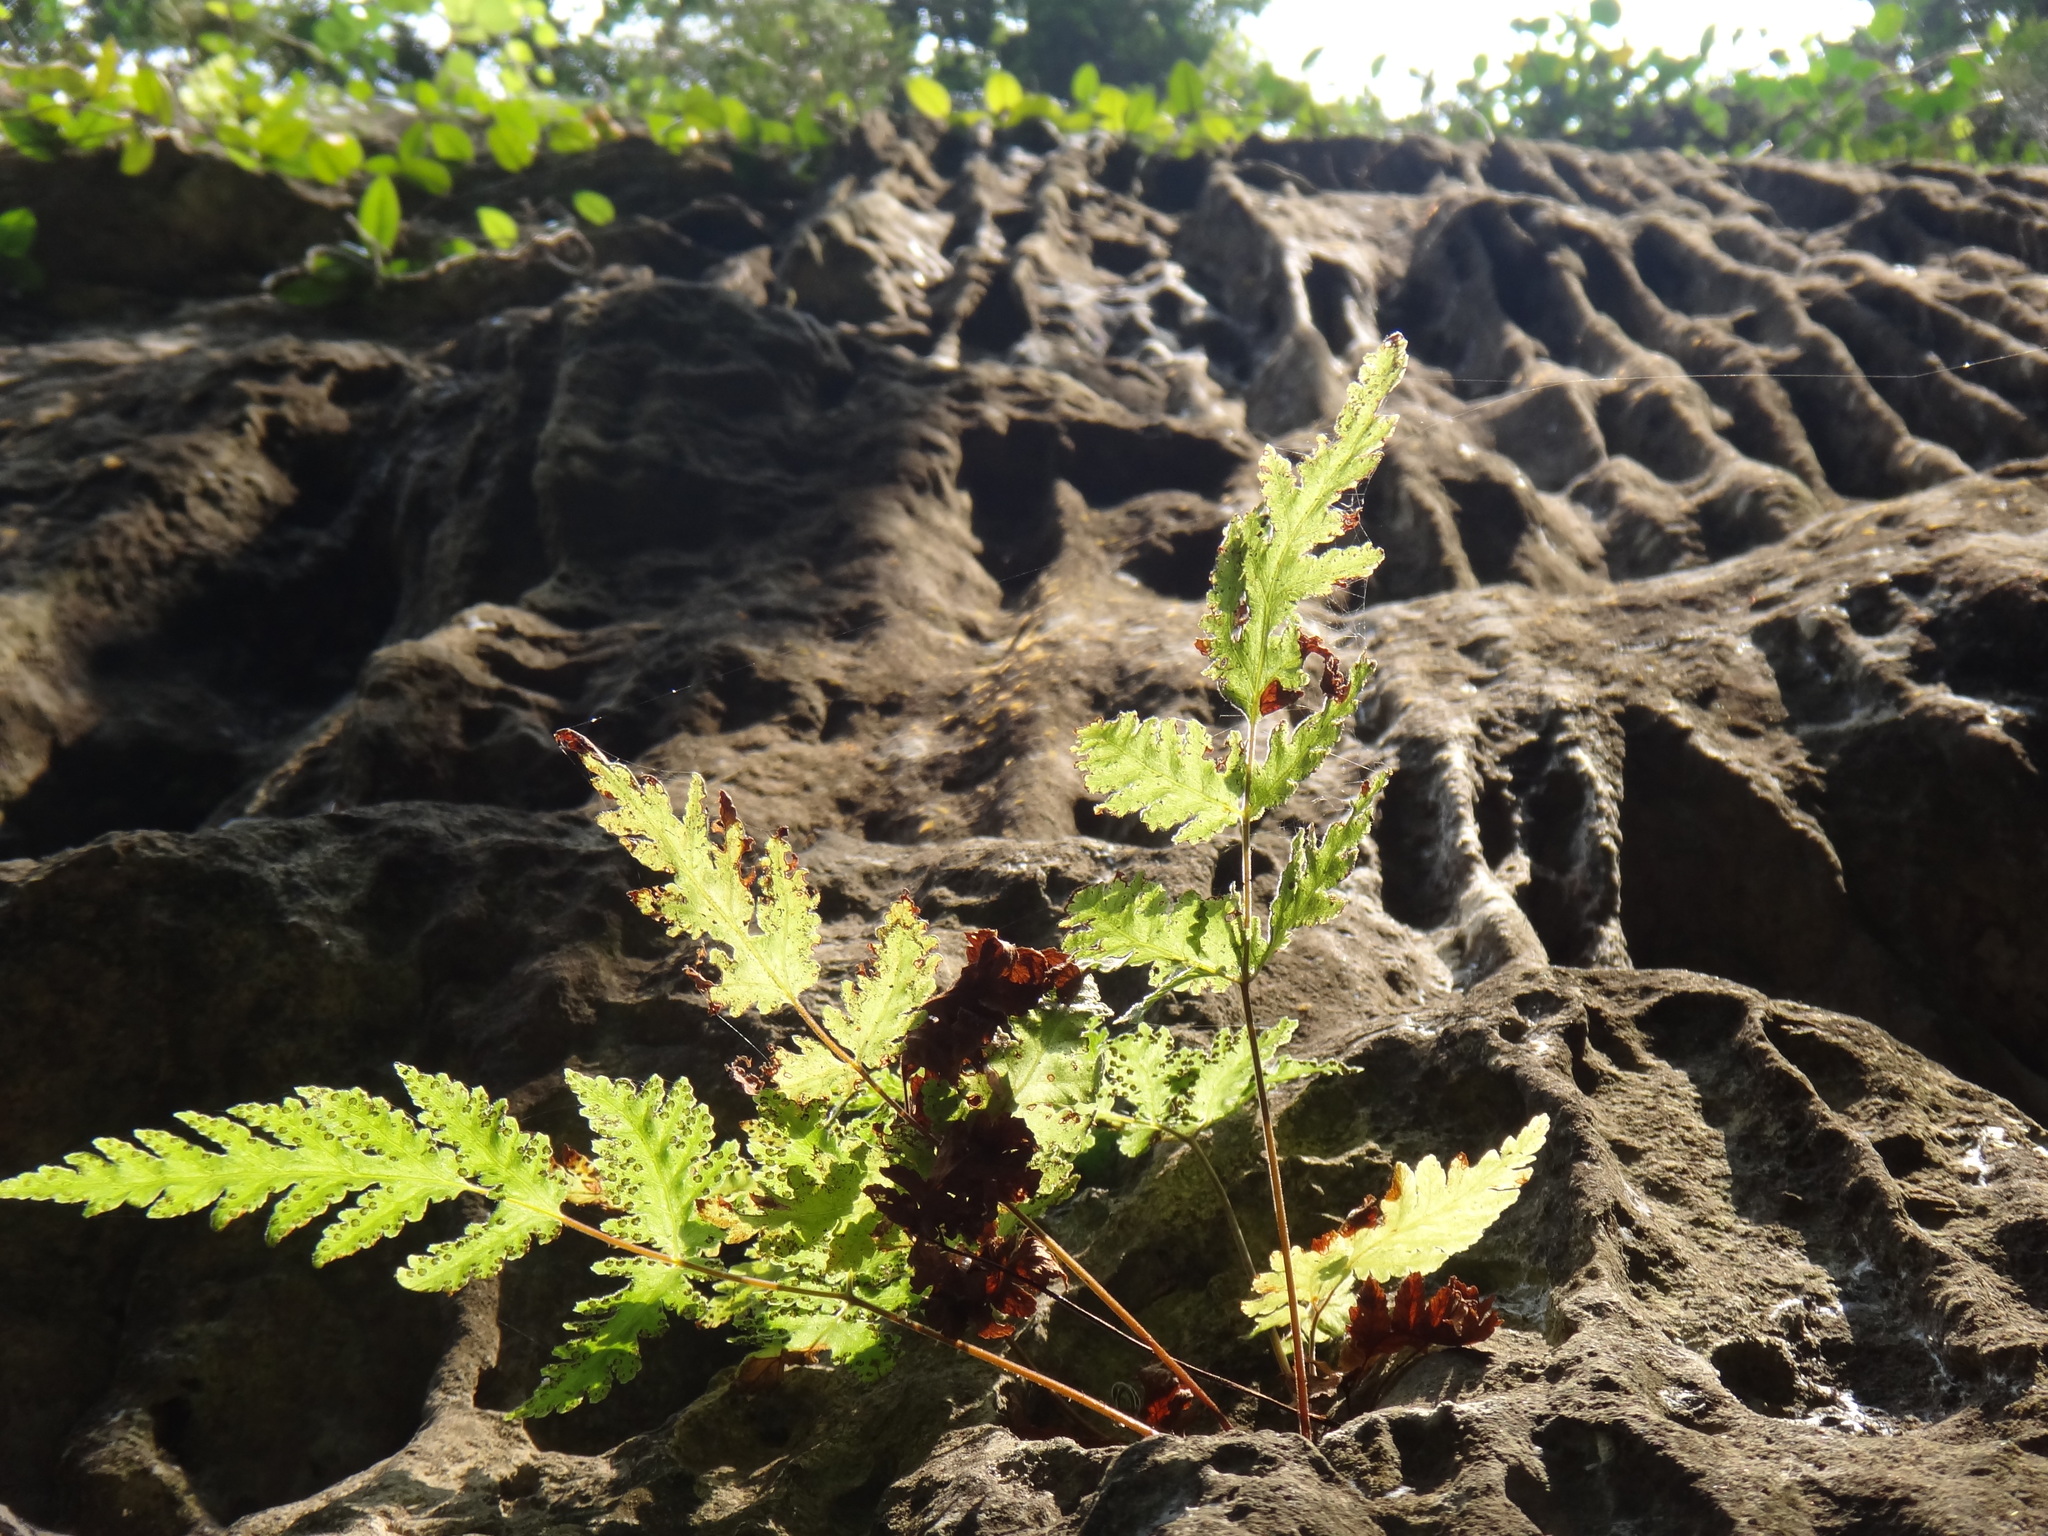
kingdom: Plantae
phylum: Tracheophyta
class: Polypodiopsida
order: Polypodiales
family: Tectariaceae
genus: Tectaria
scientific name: Tectaria membranacea
